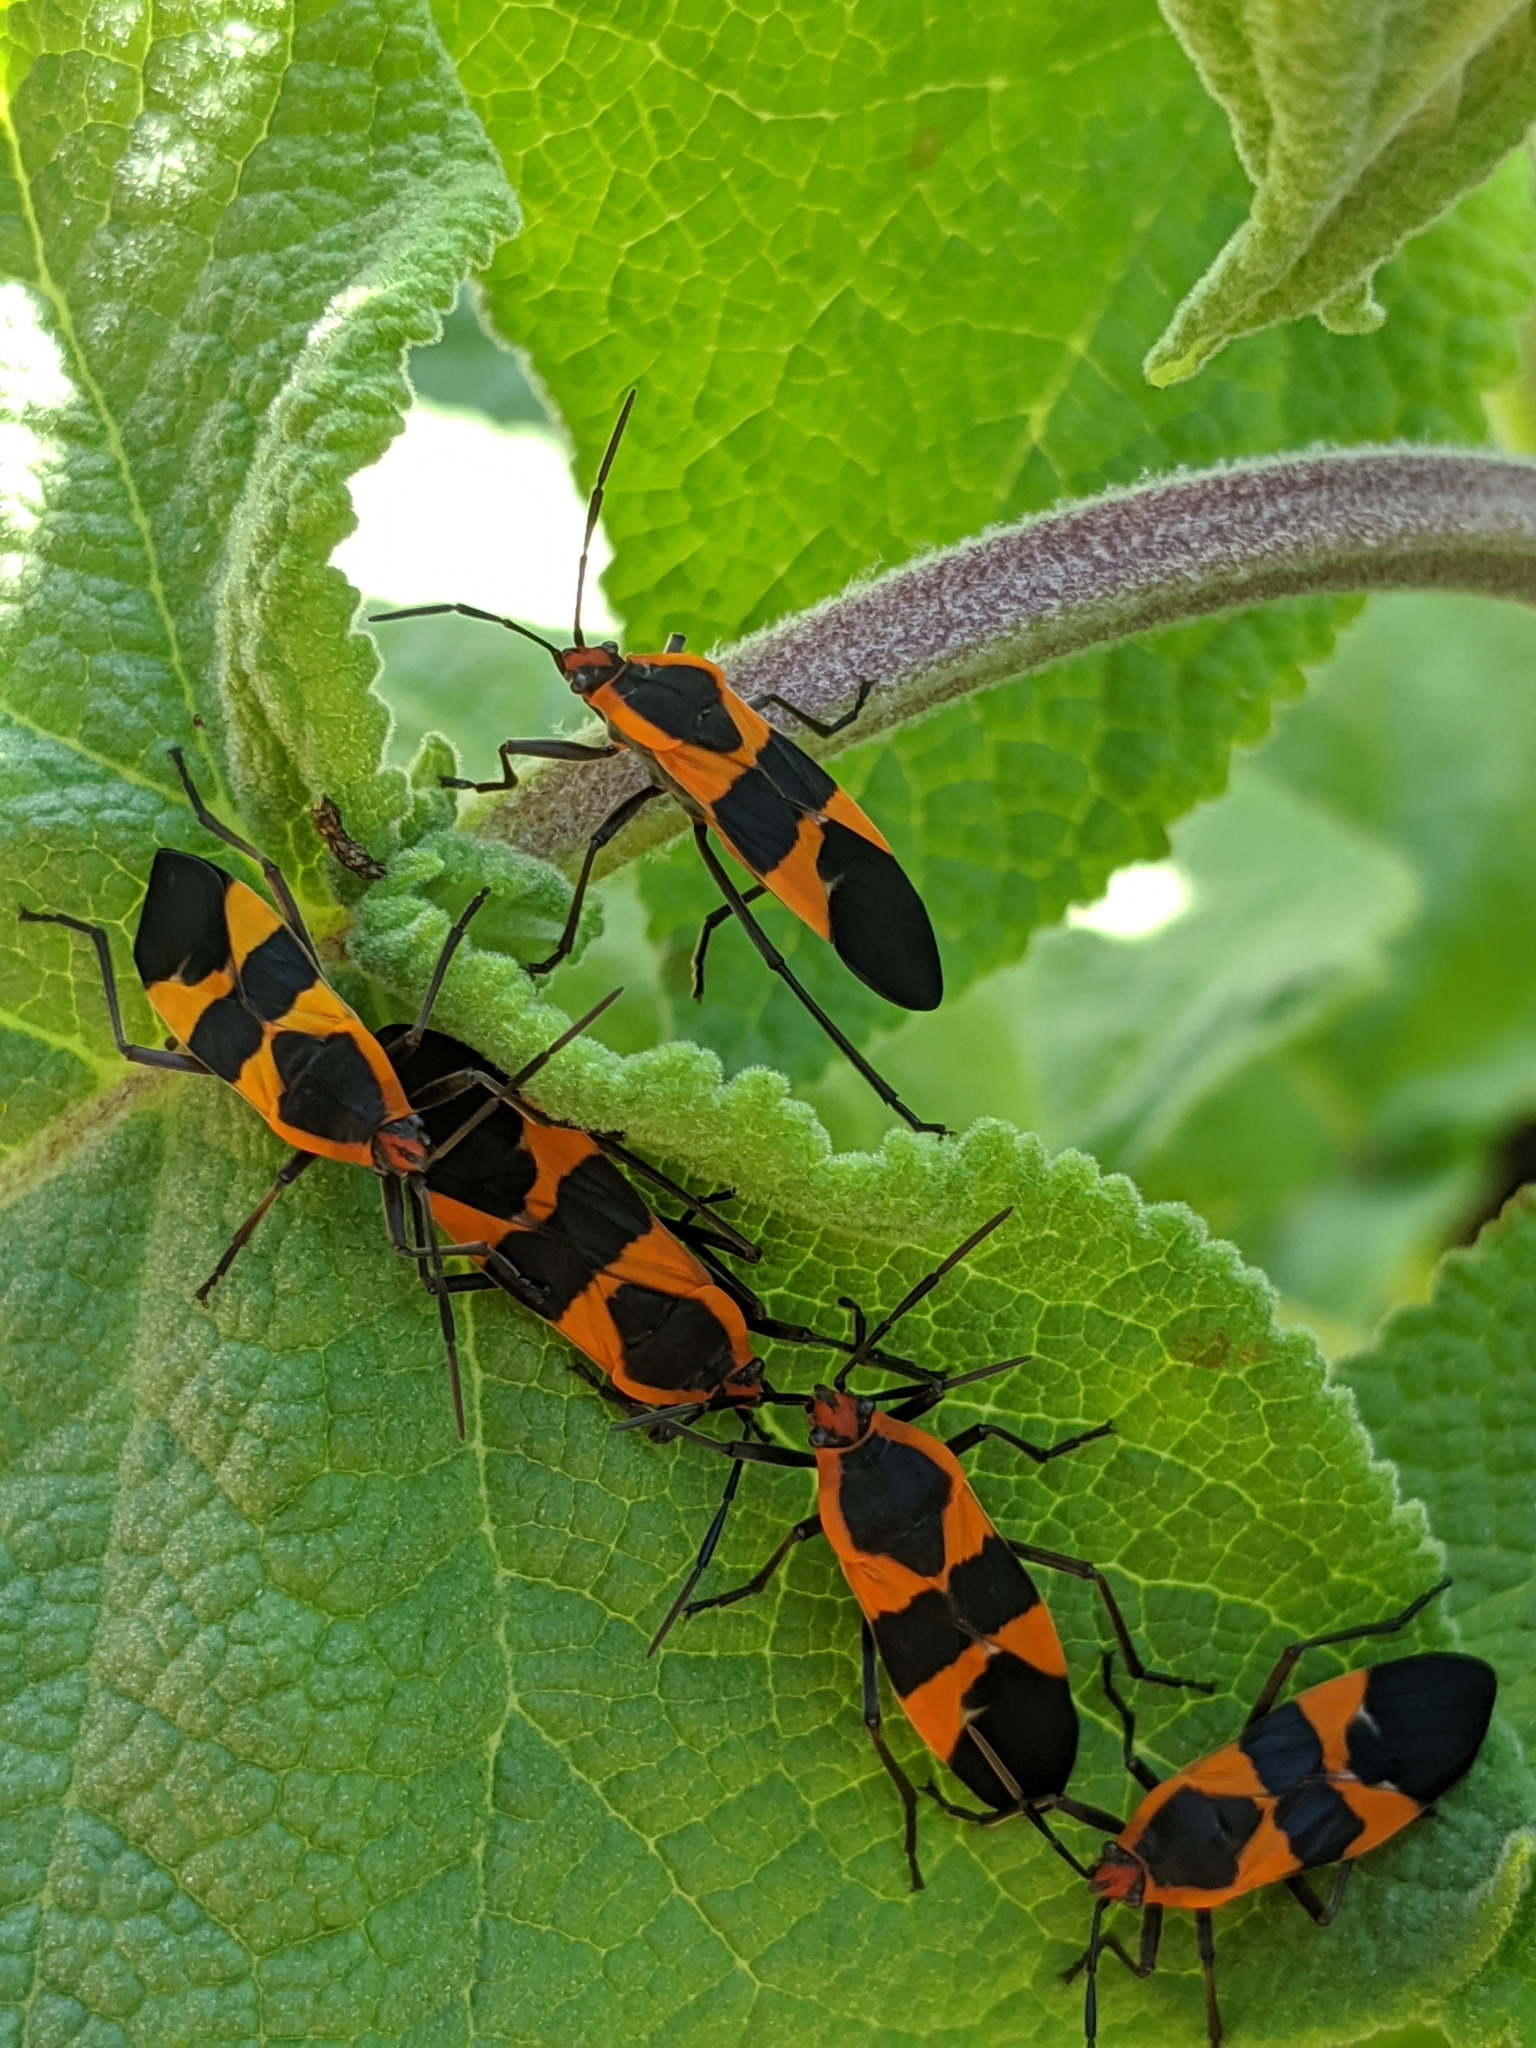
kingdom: Animalia
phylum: Arthropoda
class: Insecta
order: Hemiptera
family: Lygaeidae
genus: Oncopeltus
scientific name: Oncopeltus fasciatus
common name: Large milkweed bug
